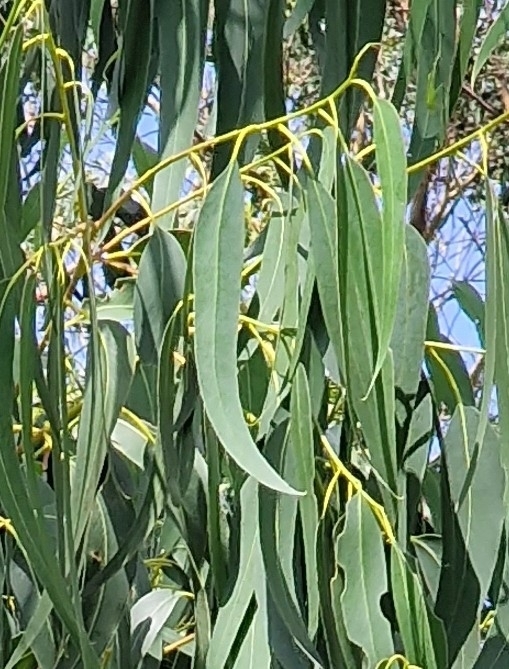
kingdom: Plantae
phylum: Tracheophyta
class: Magnoliopsida
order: Myrtales
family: Myrtaceae
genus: Eucalyptus
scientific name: Eucalyptus globulus
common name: Southern blue-gum
